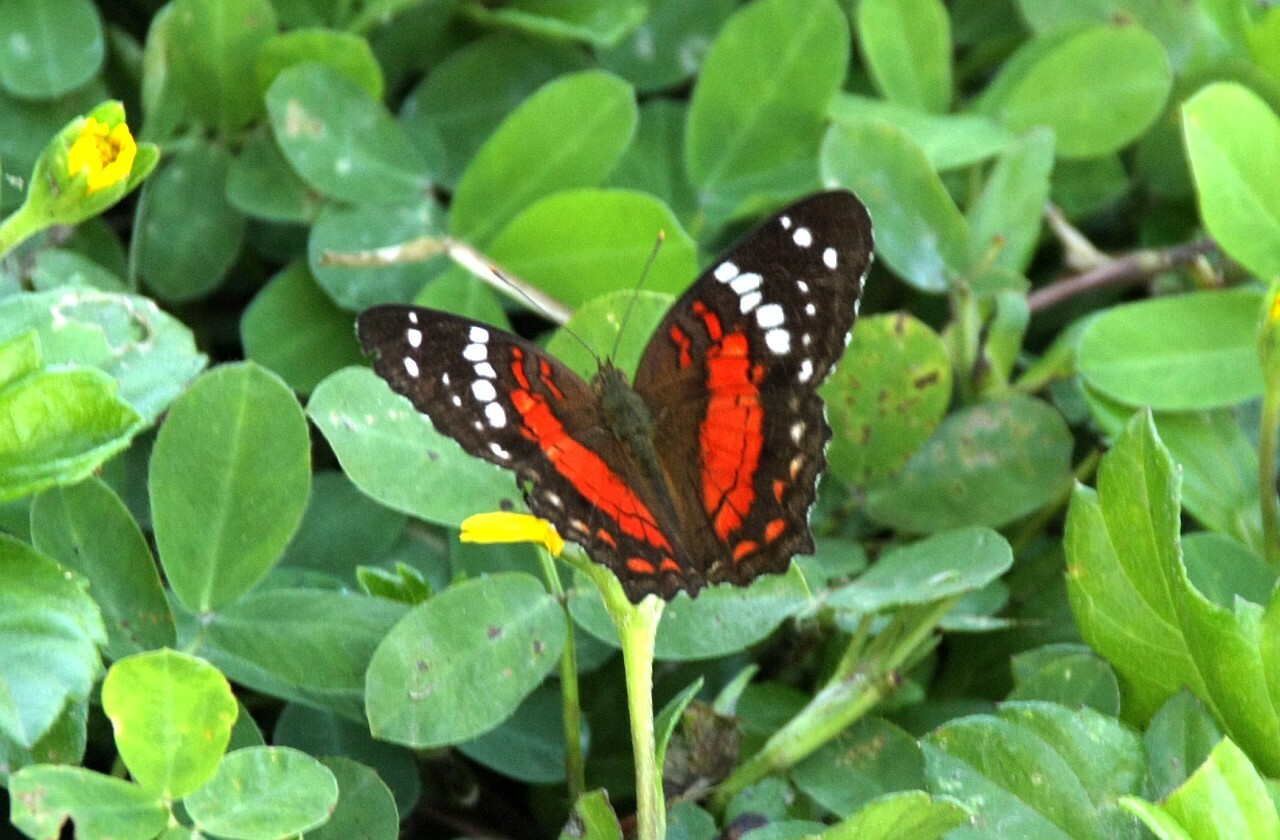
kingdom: Animalia
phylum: Arthropoda
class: Insecta
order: Lepidoptera
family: Nymphalidae
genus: Anartia
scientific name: Anartia amathea
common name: Red peacock
